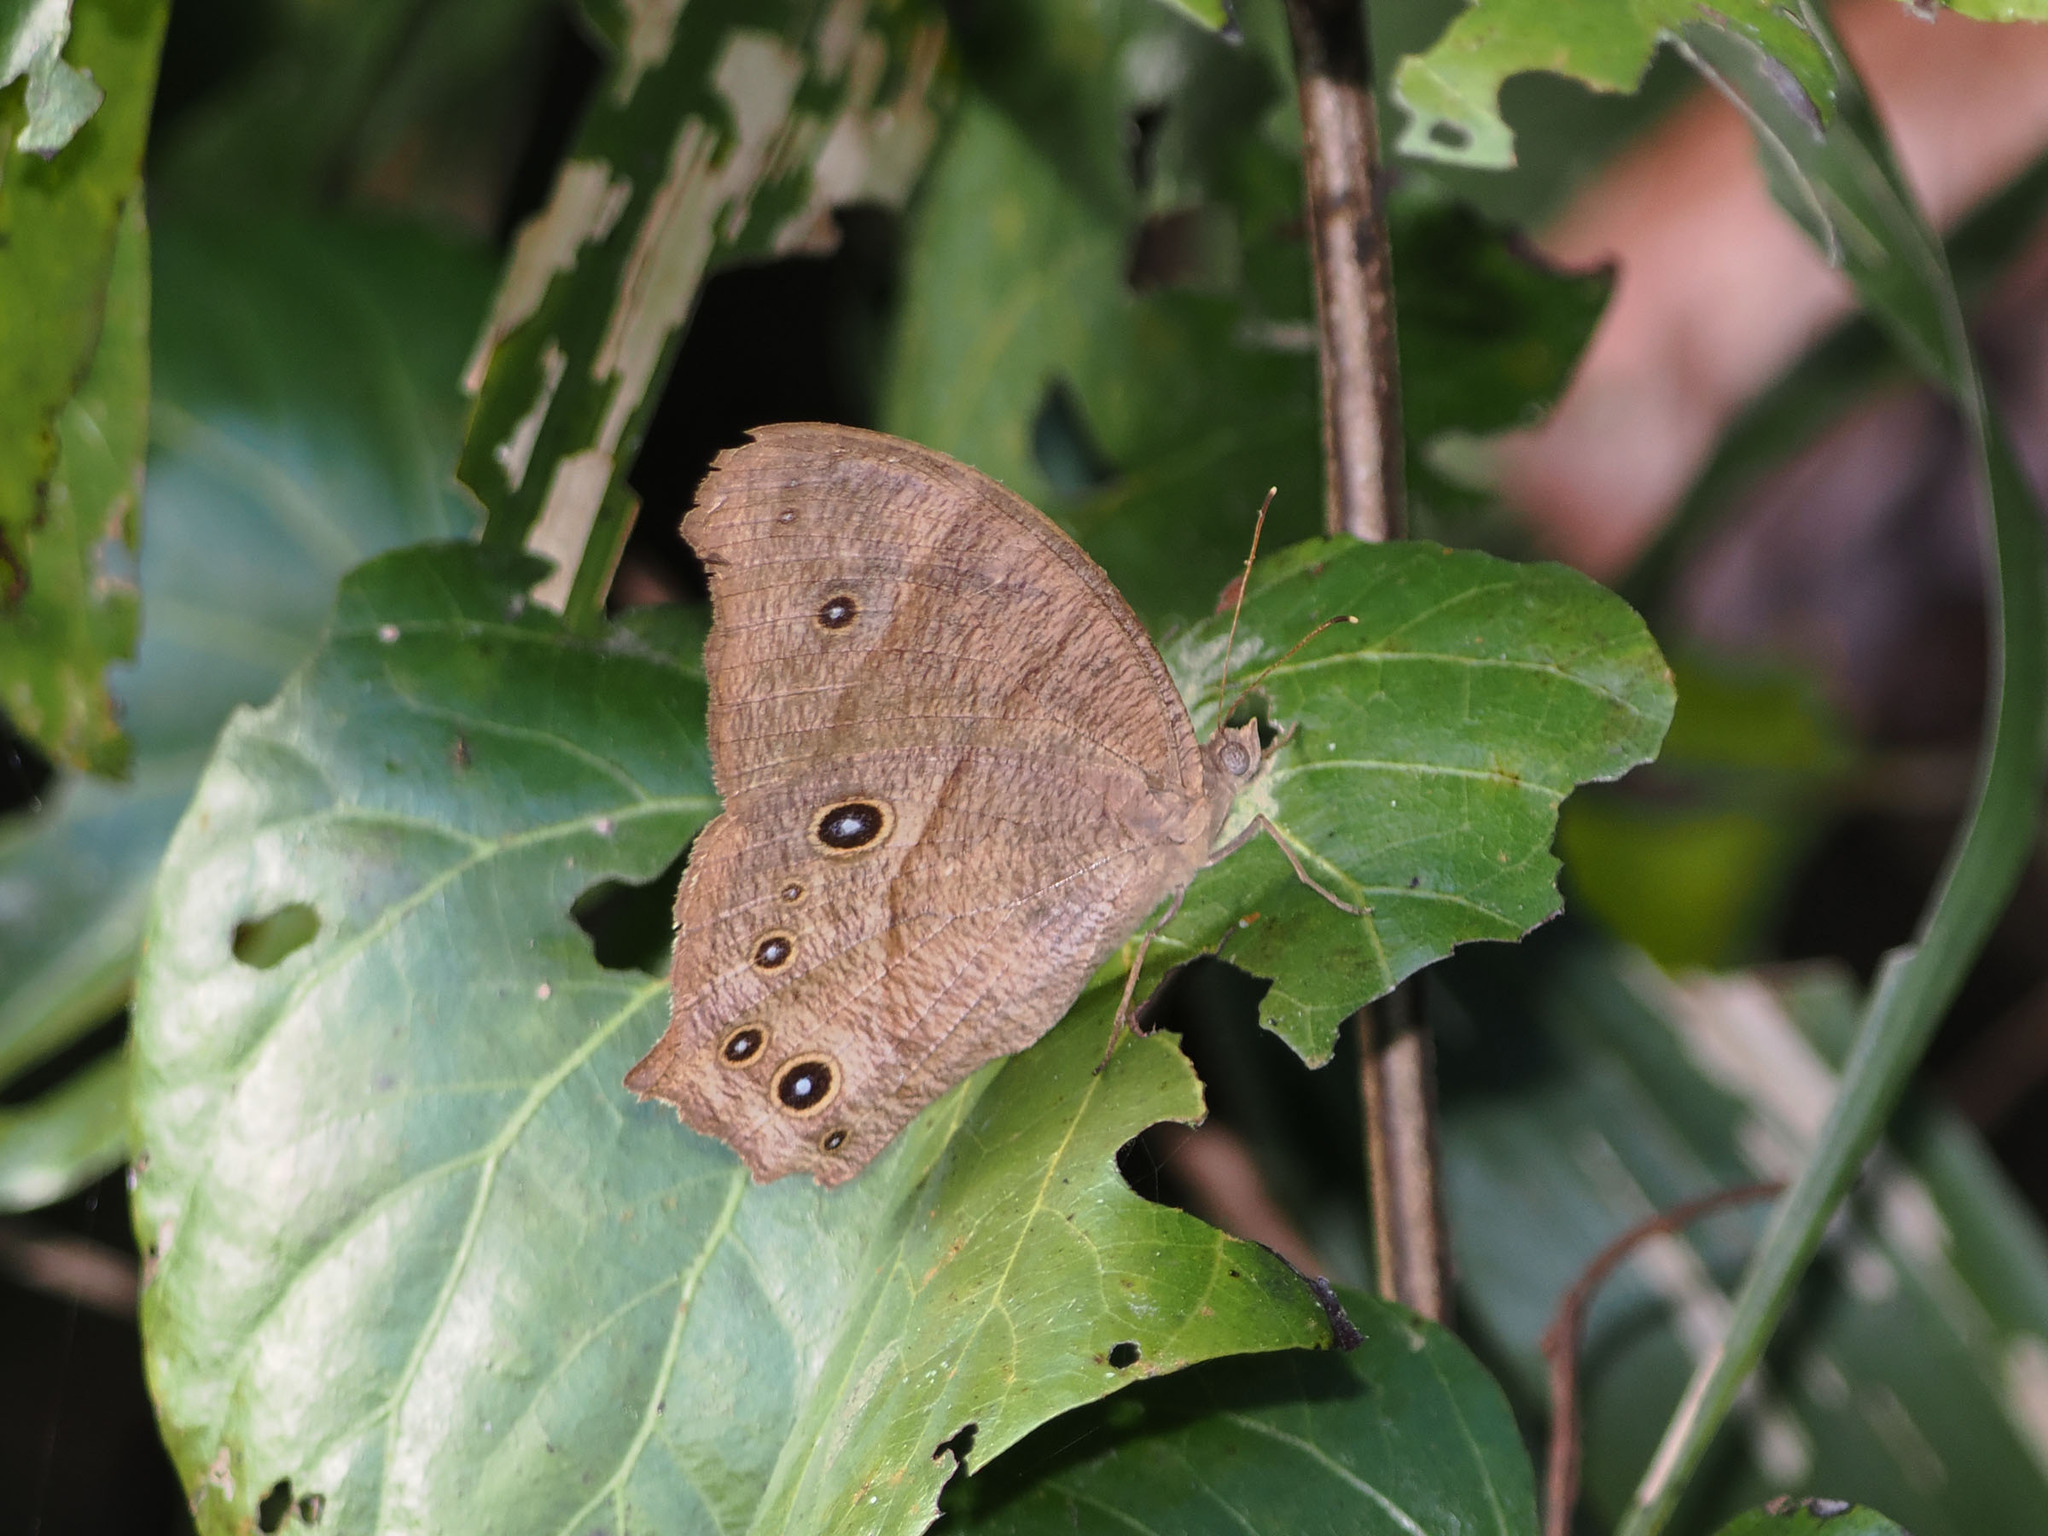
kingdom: Animalia
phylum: Arthropoda
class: Insecta
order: Lepidoptera
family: Nymphalidae
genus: Melanitis
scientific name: Melanitis leda
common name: Twilight brown
